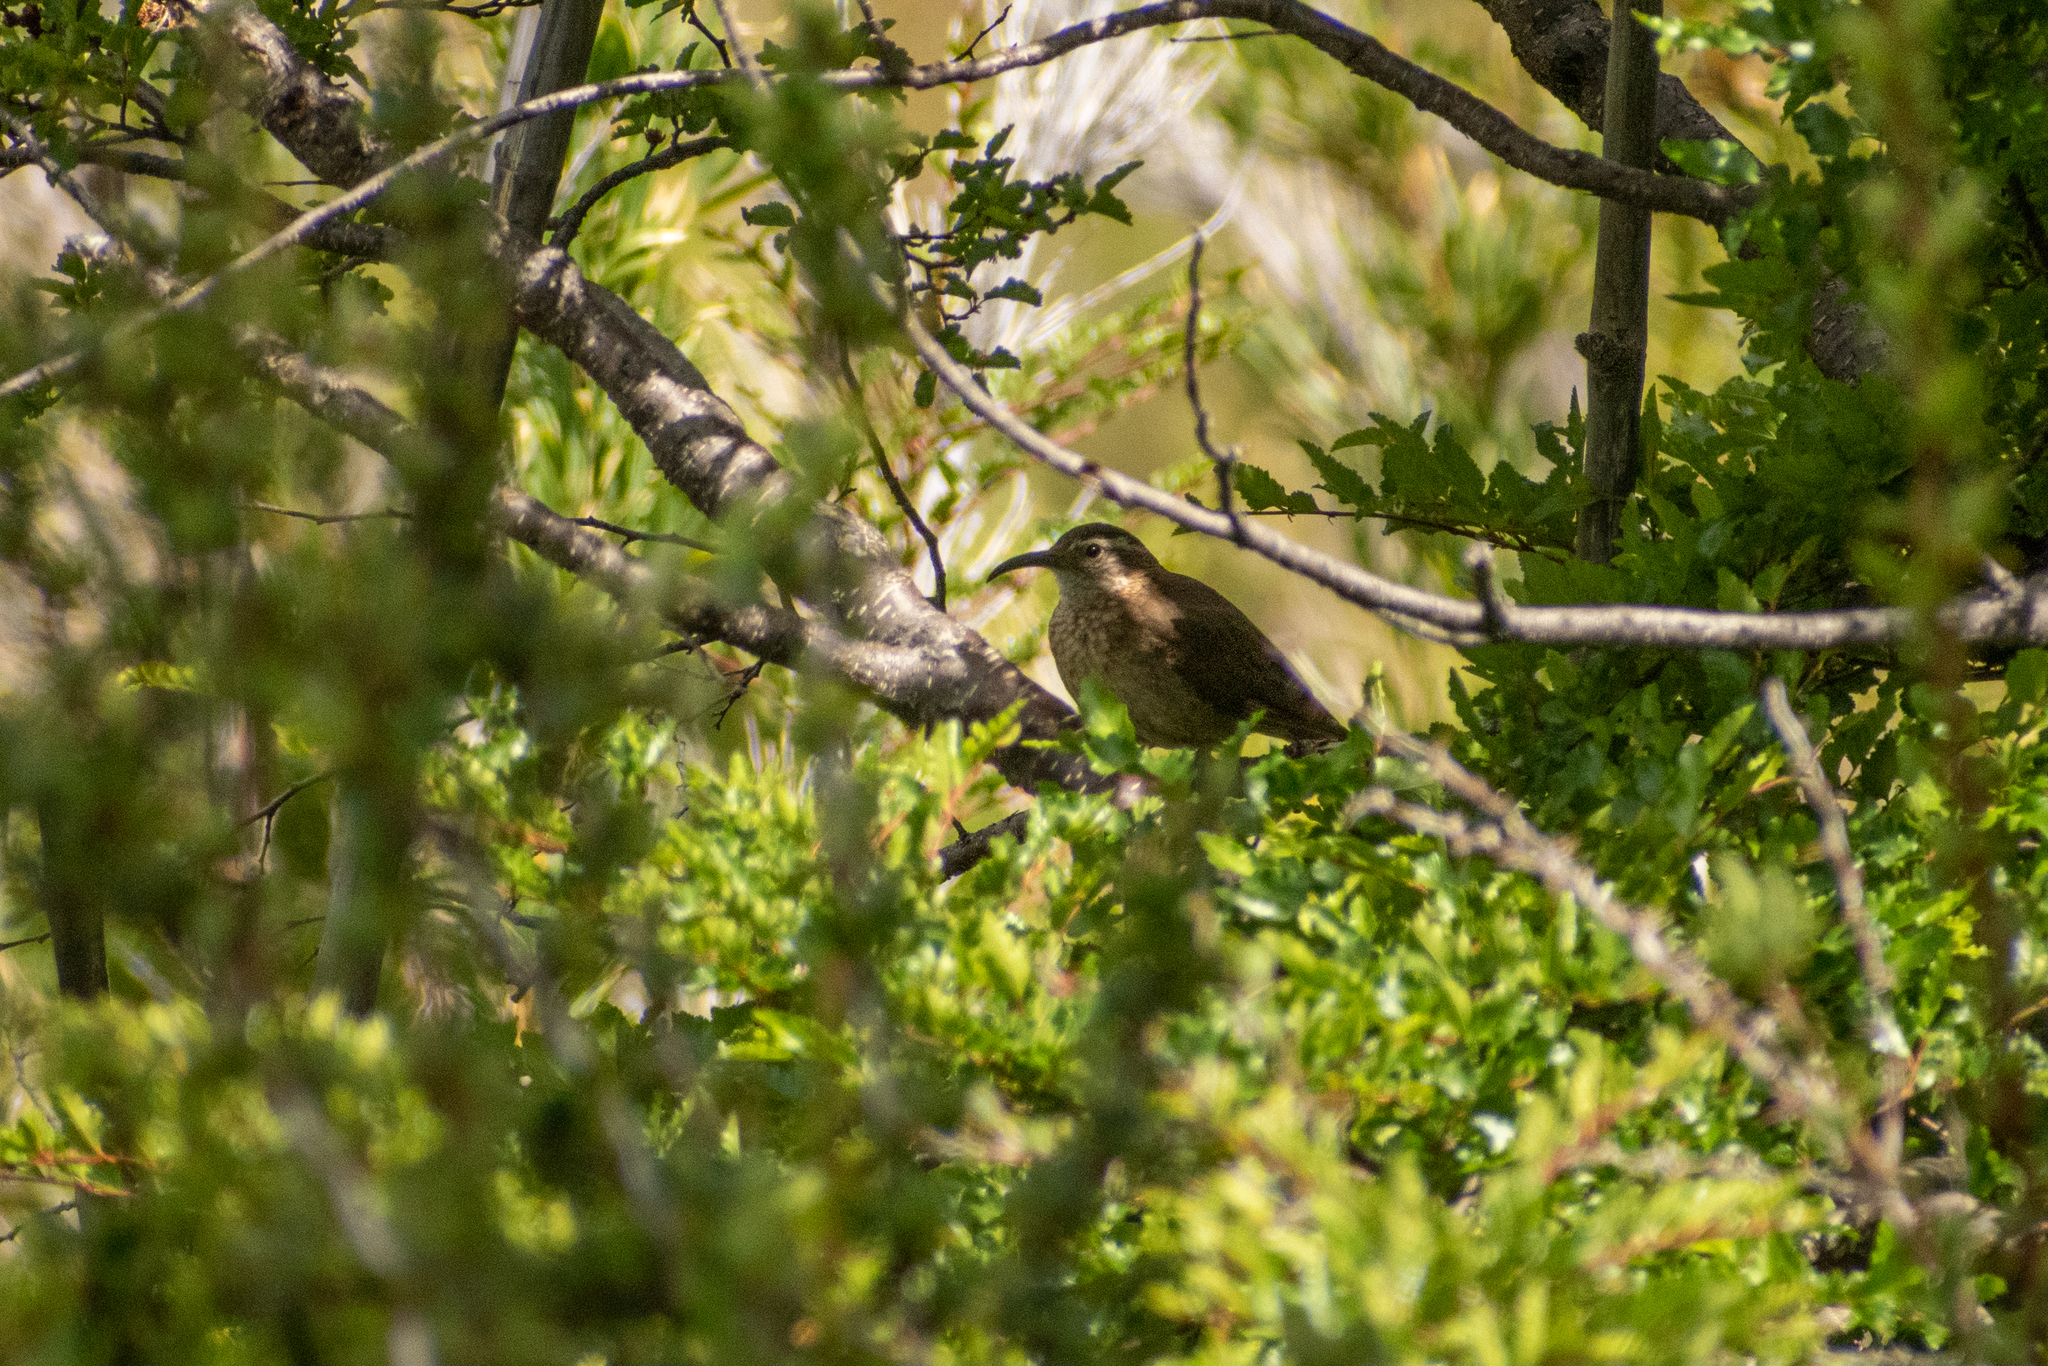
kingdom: Animalia
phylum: Chordata
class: Aves
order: Passeriformes
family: Furnariidae
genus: Upucerthia
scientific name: Upucerthia saturatior
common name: Patagonian forest earthcreeper
